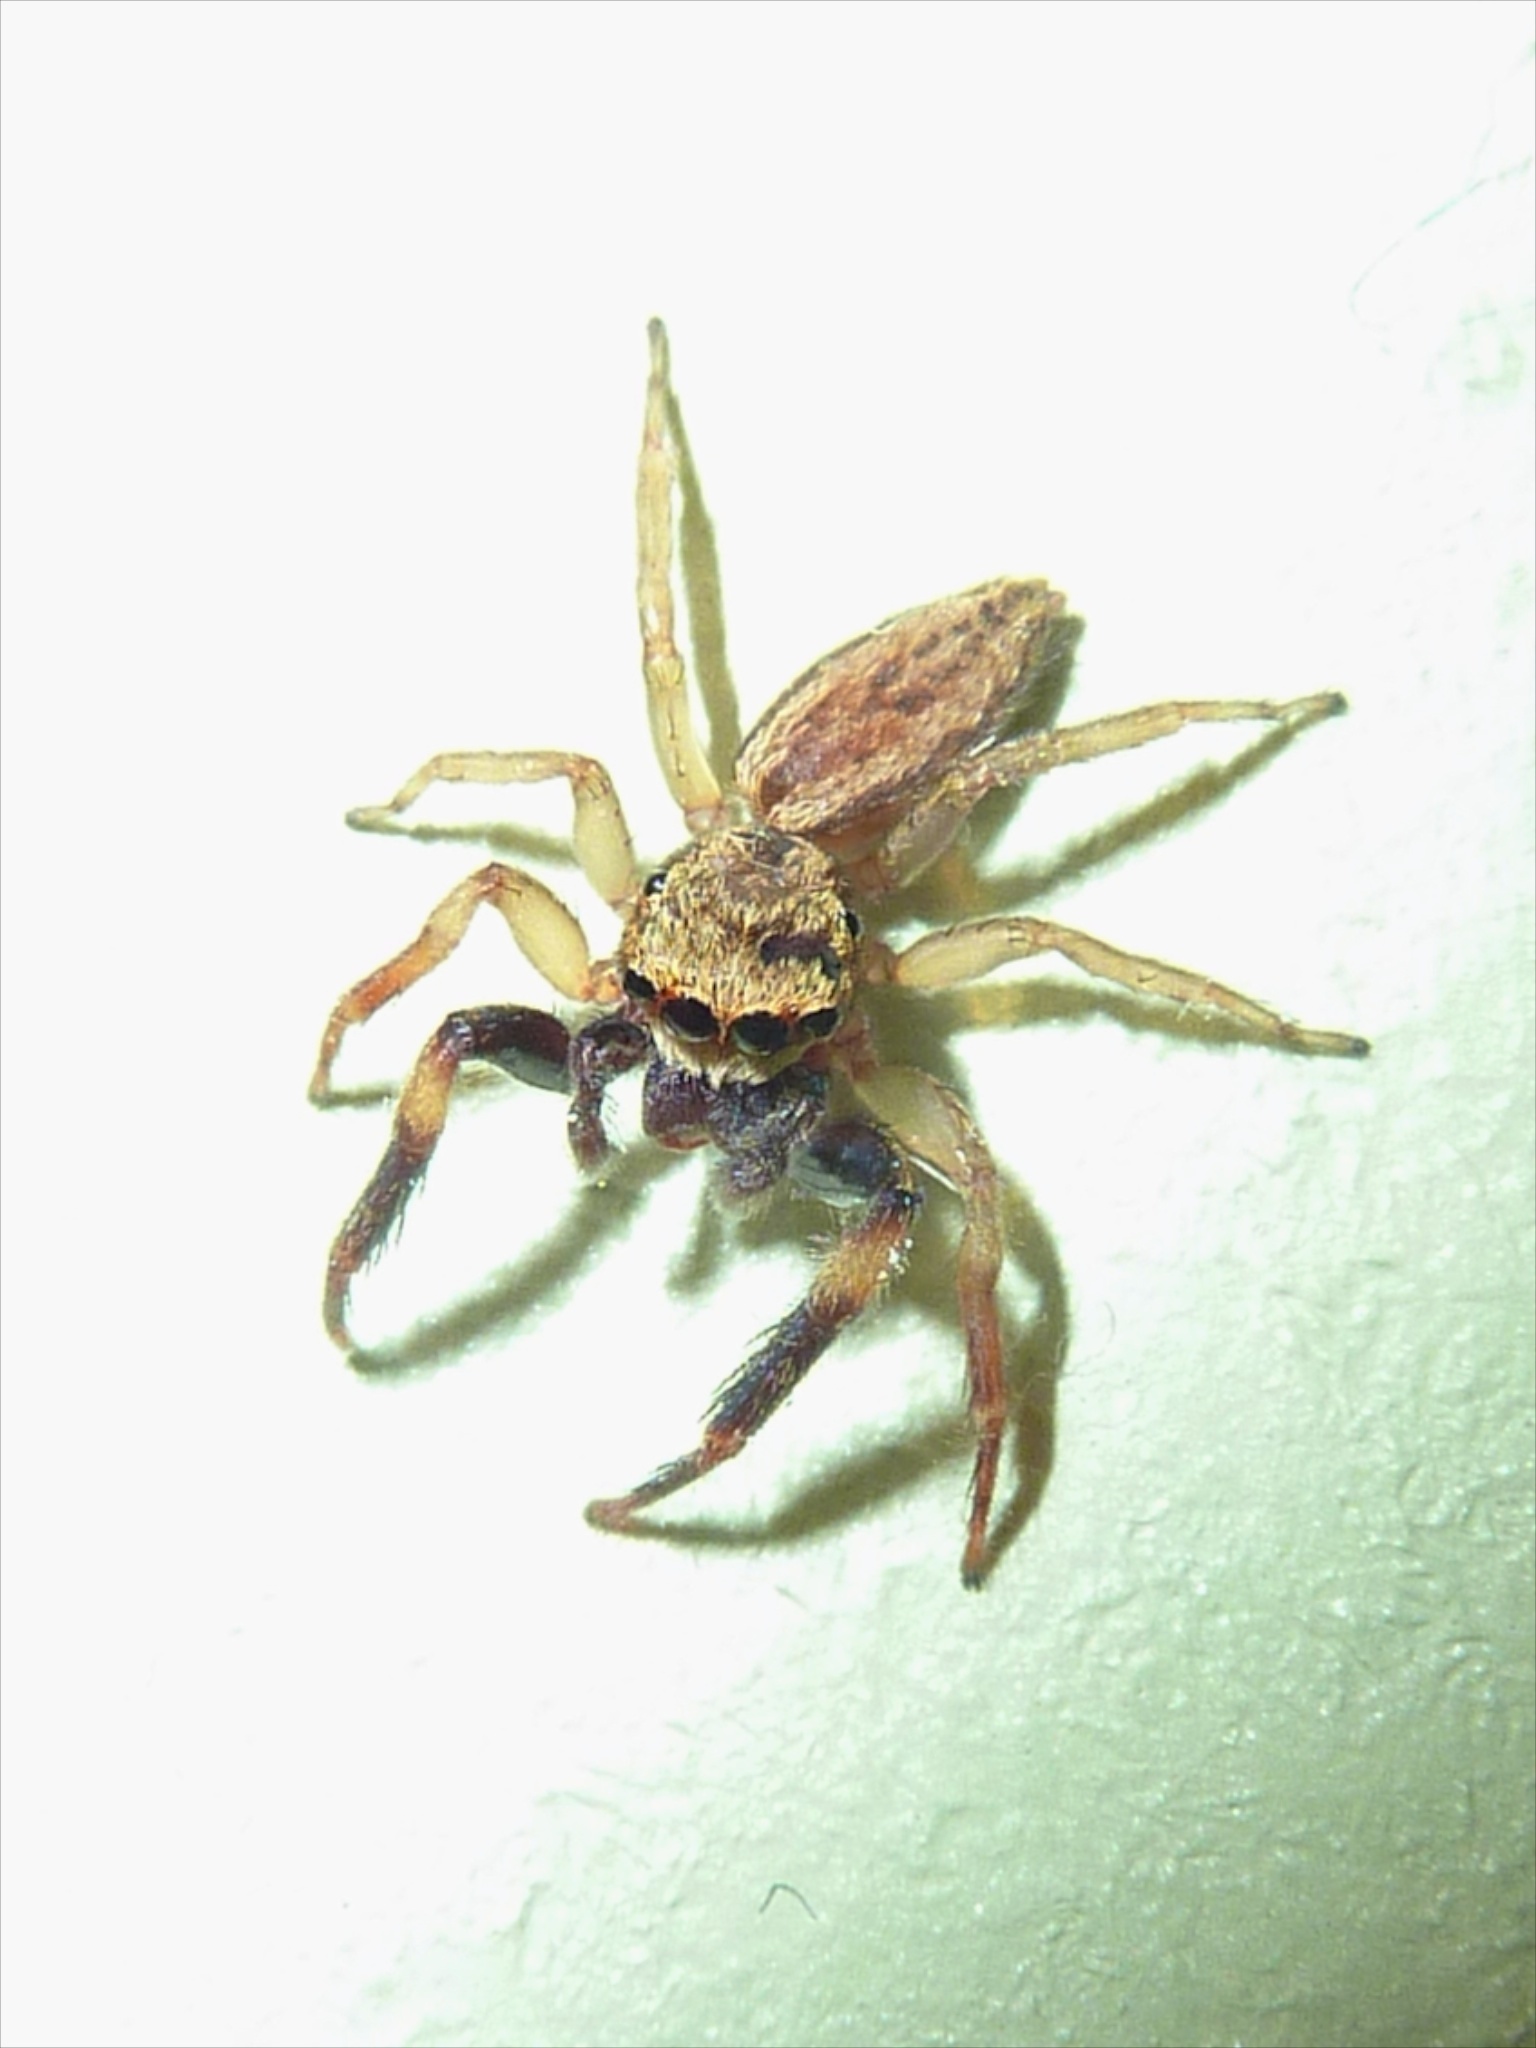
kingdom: Animalia
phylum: Arthropoda
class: Arachnida
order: Araneae
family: Salticidae
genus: Trite
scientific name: Trite auricoma
